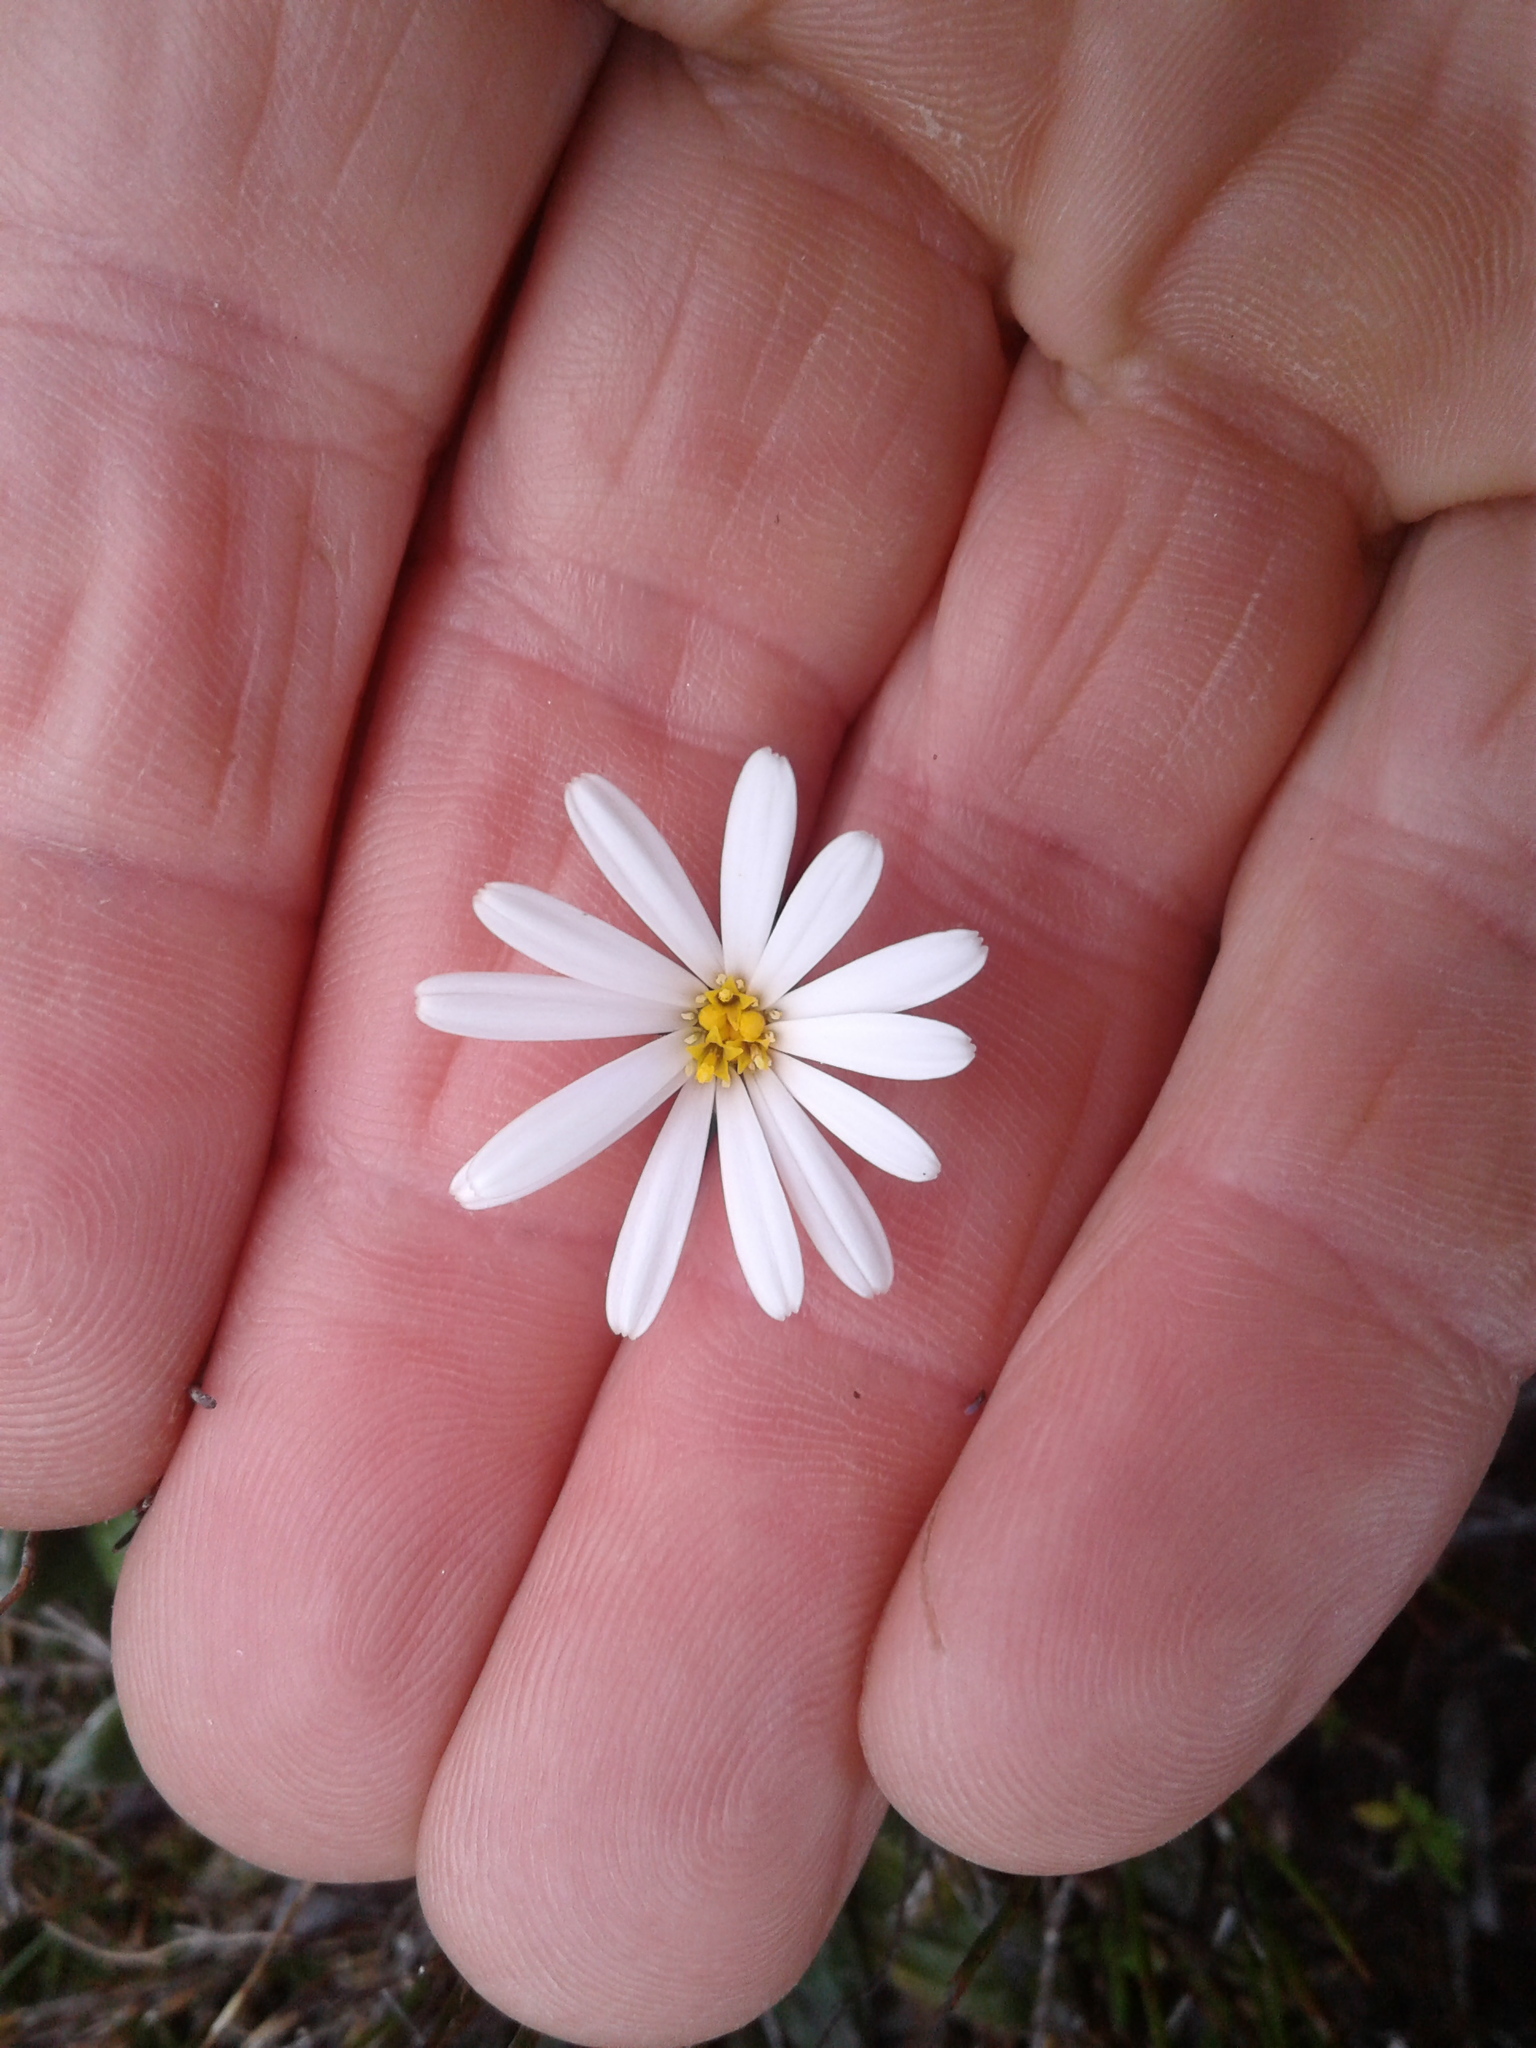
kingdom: Plantae
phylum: Tracheophyta
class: Magnoliopsida
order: Asterales
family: Asteraceae
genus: Celmisia
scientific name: Celmisia dubia
